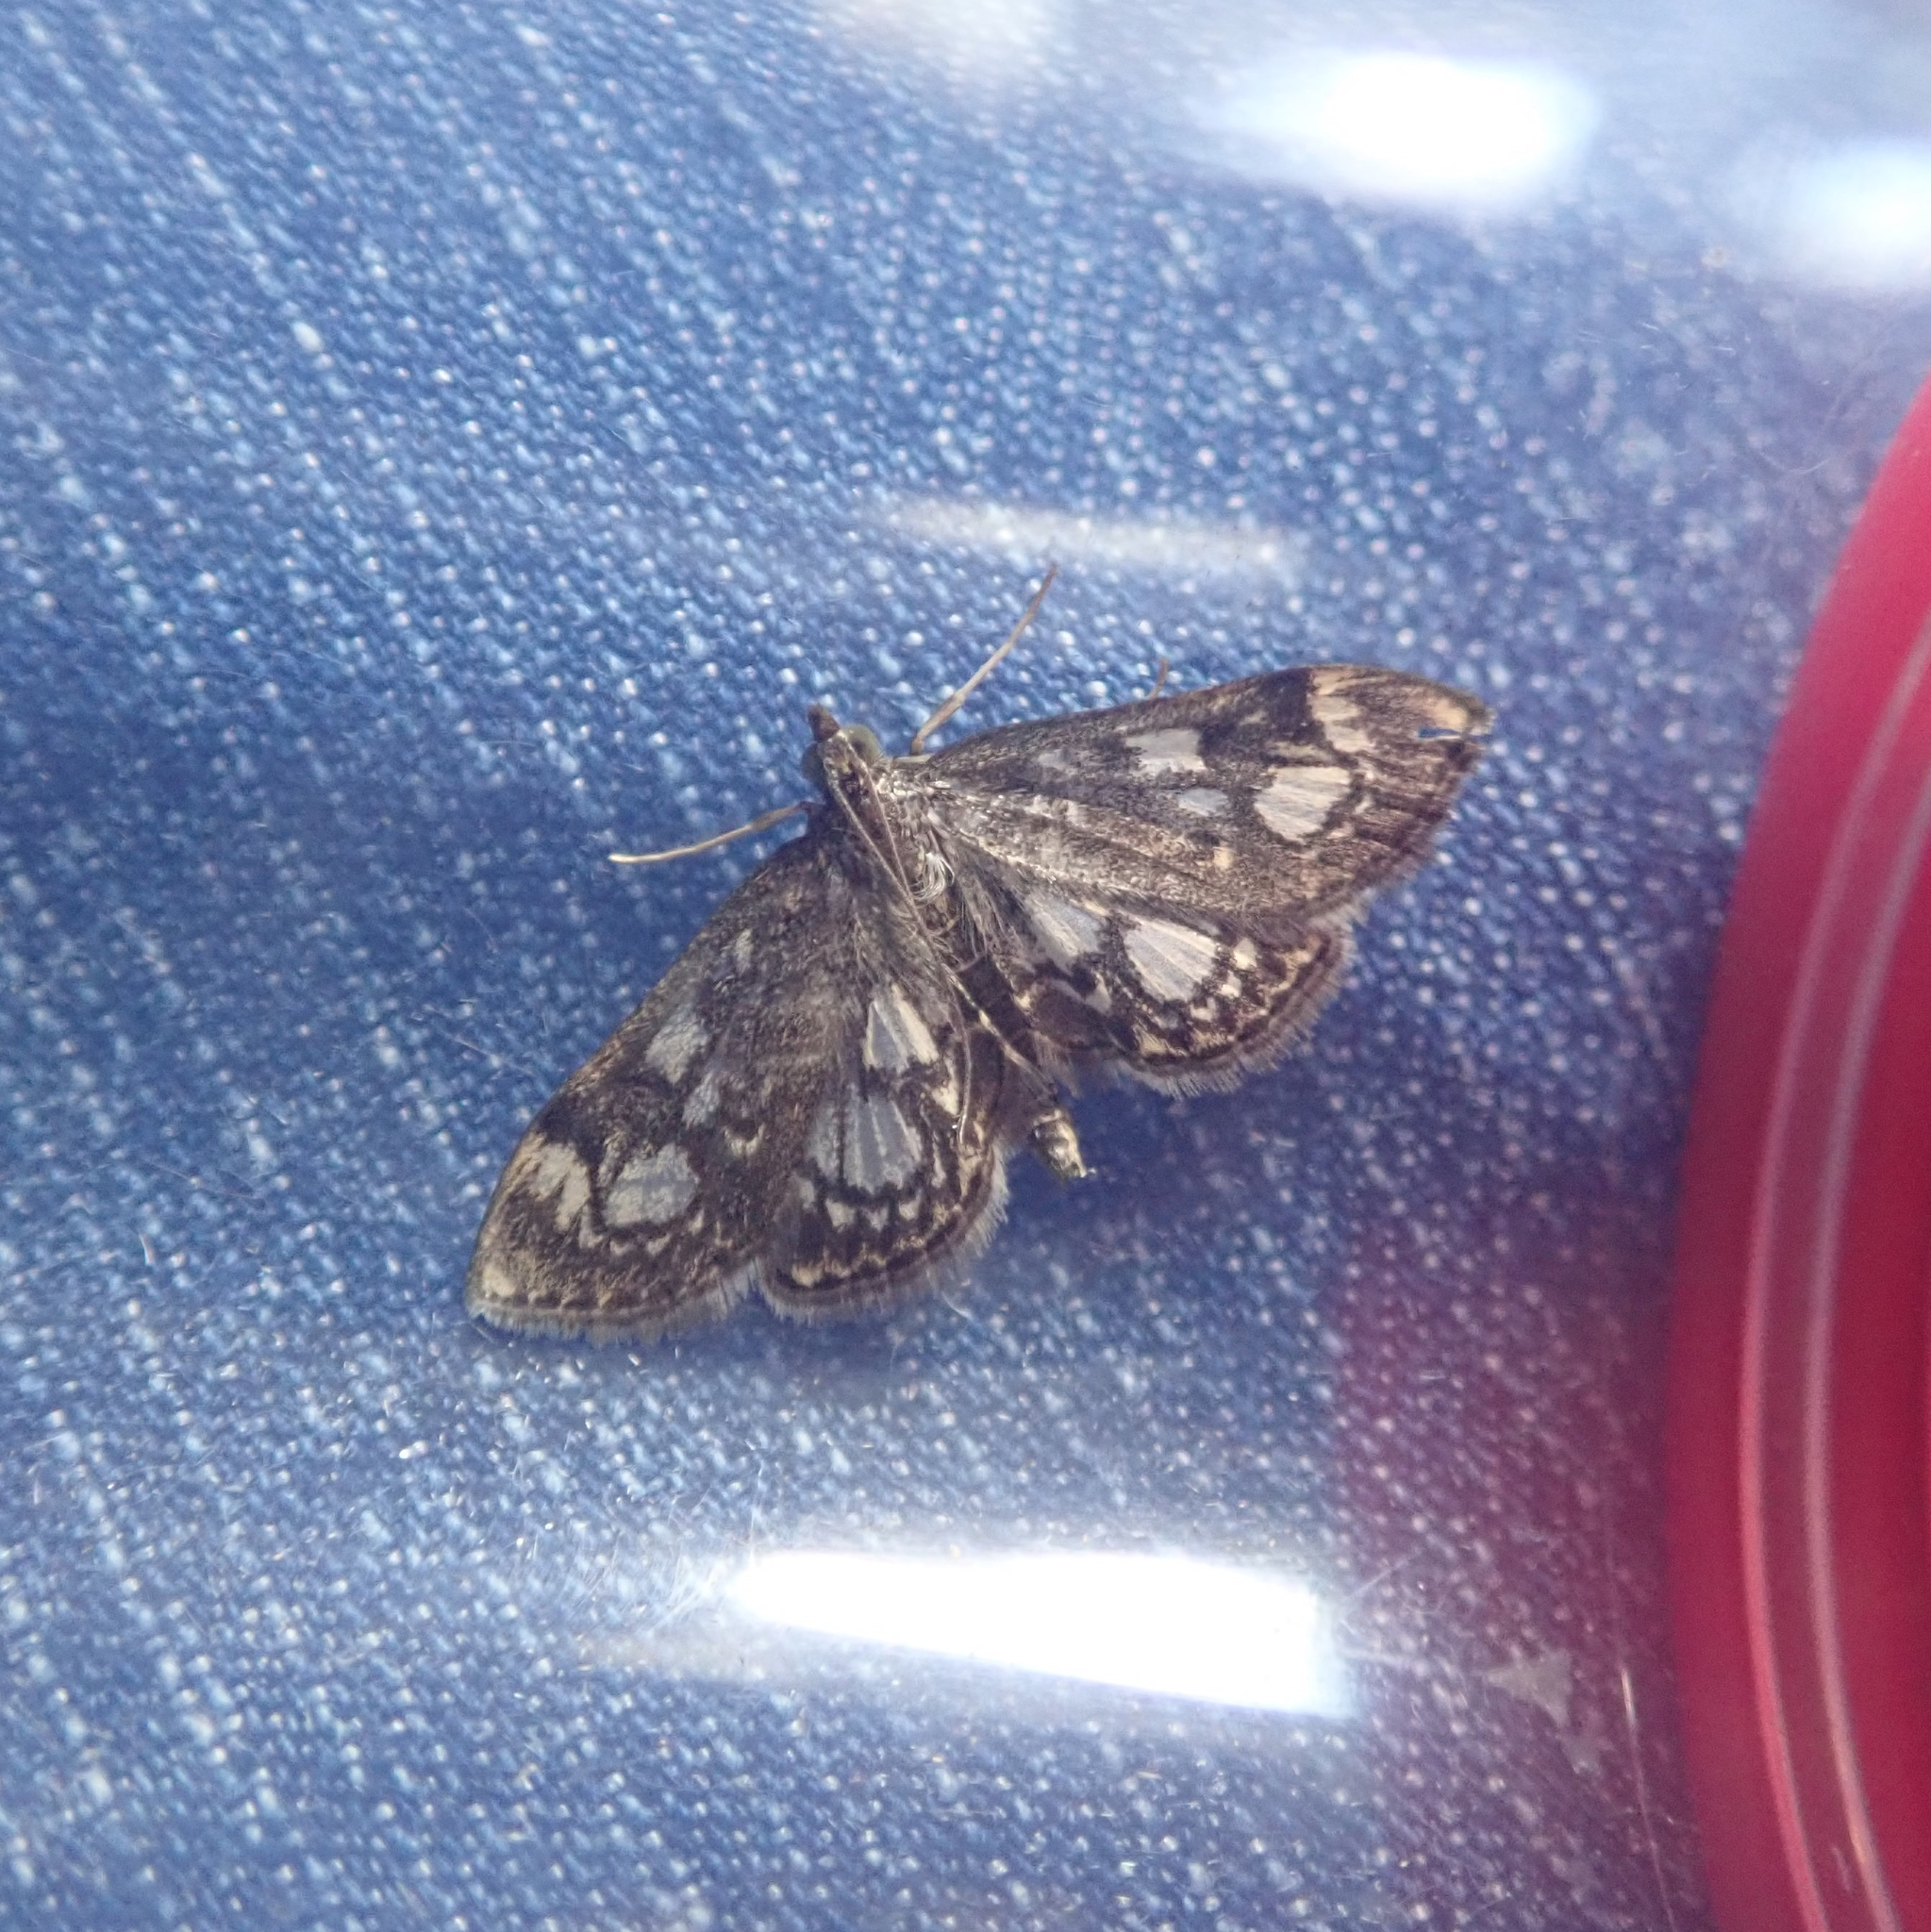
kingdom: Animalia
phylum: Arthropoda
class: Insecta
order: Lepidoptera
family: Crambidae
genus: Anania
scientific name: Anania coronata
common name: Elder pearl
